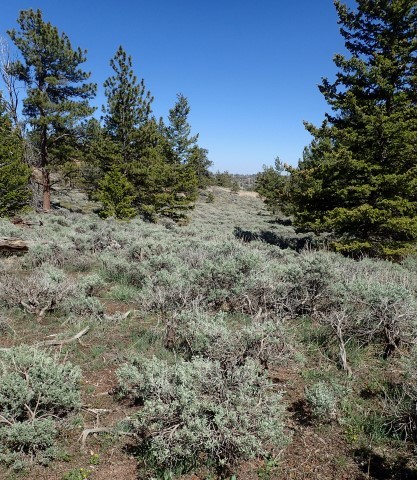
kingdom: Plantae
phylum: Tracheophyta
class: Magnoliopsida
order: Ranunculales
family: Ranunculaceae
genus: Pulsatilla
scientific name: Pulsatilla nuttalliana
